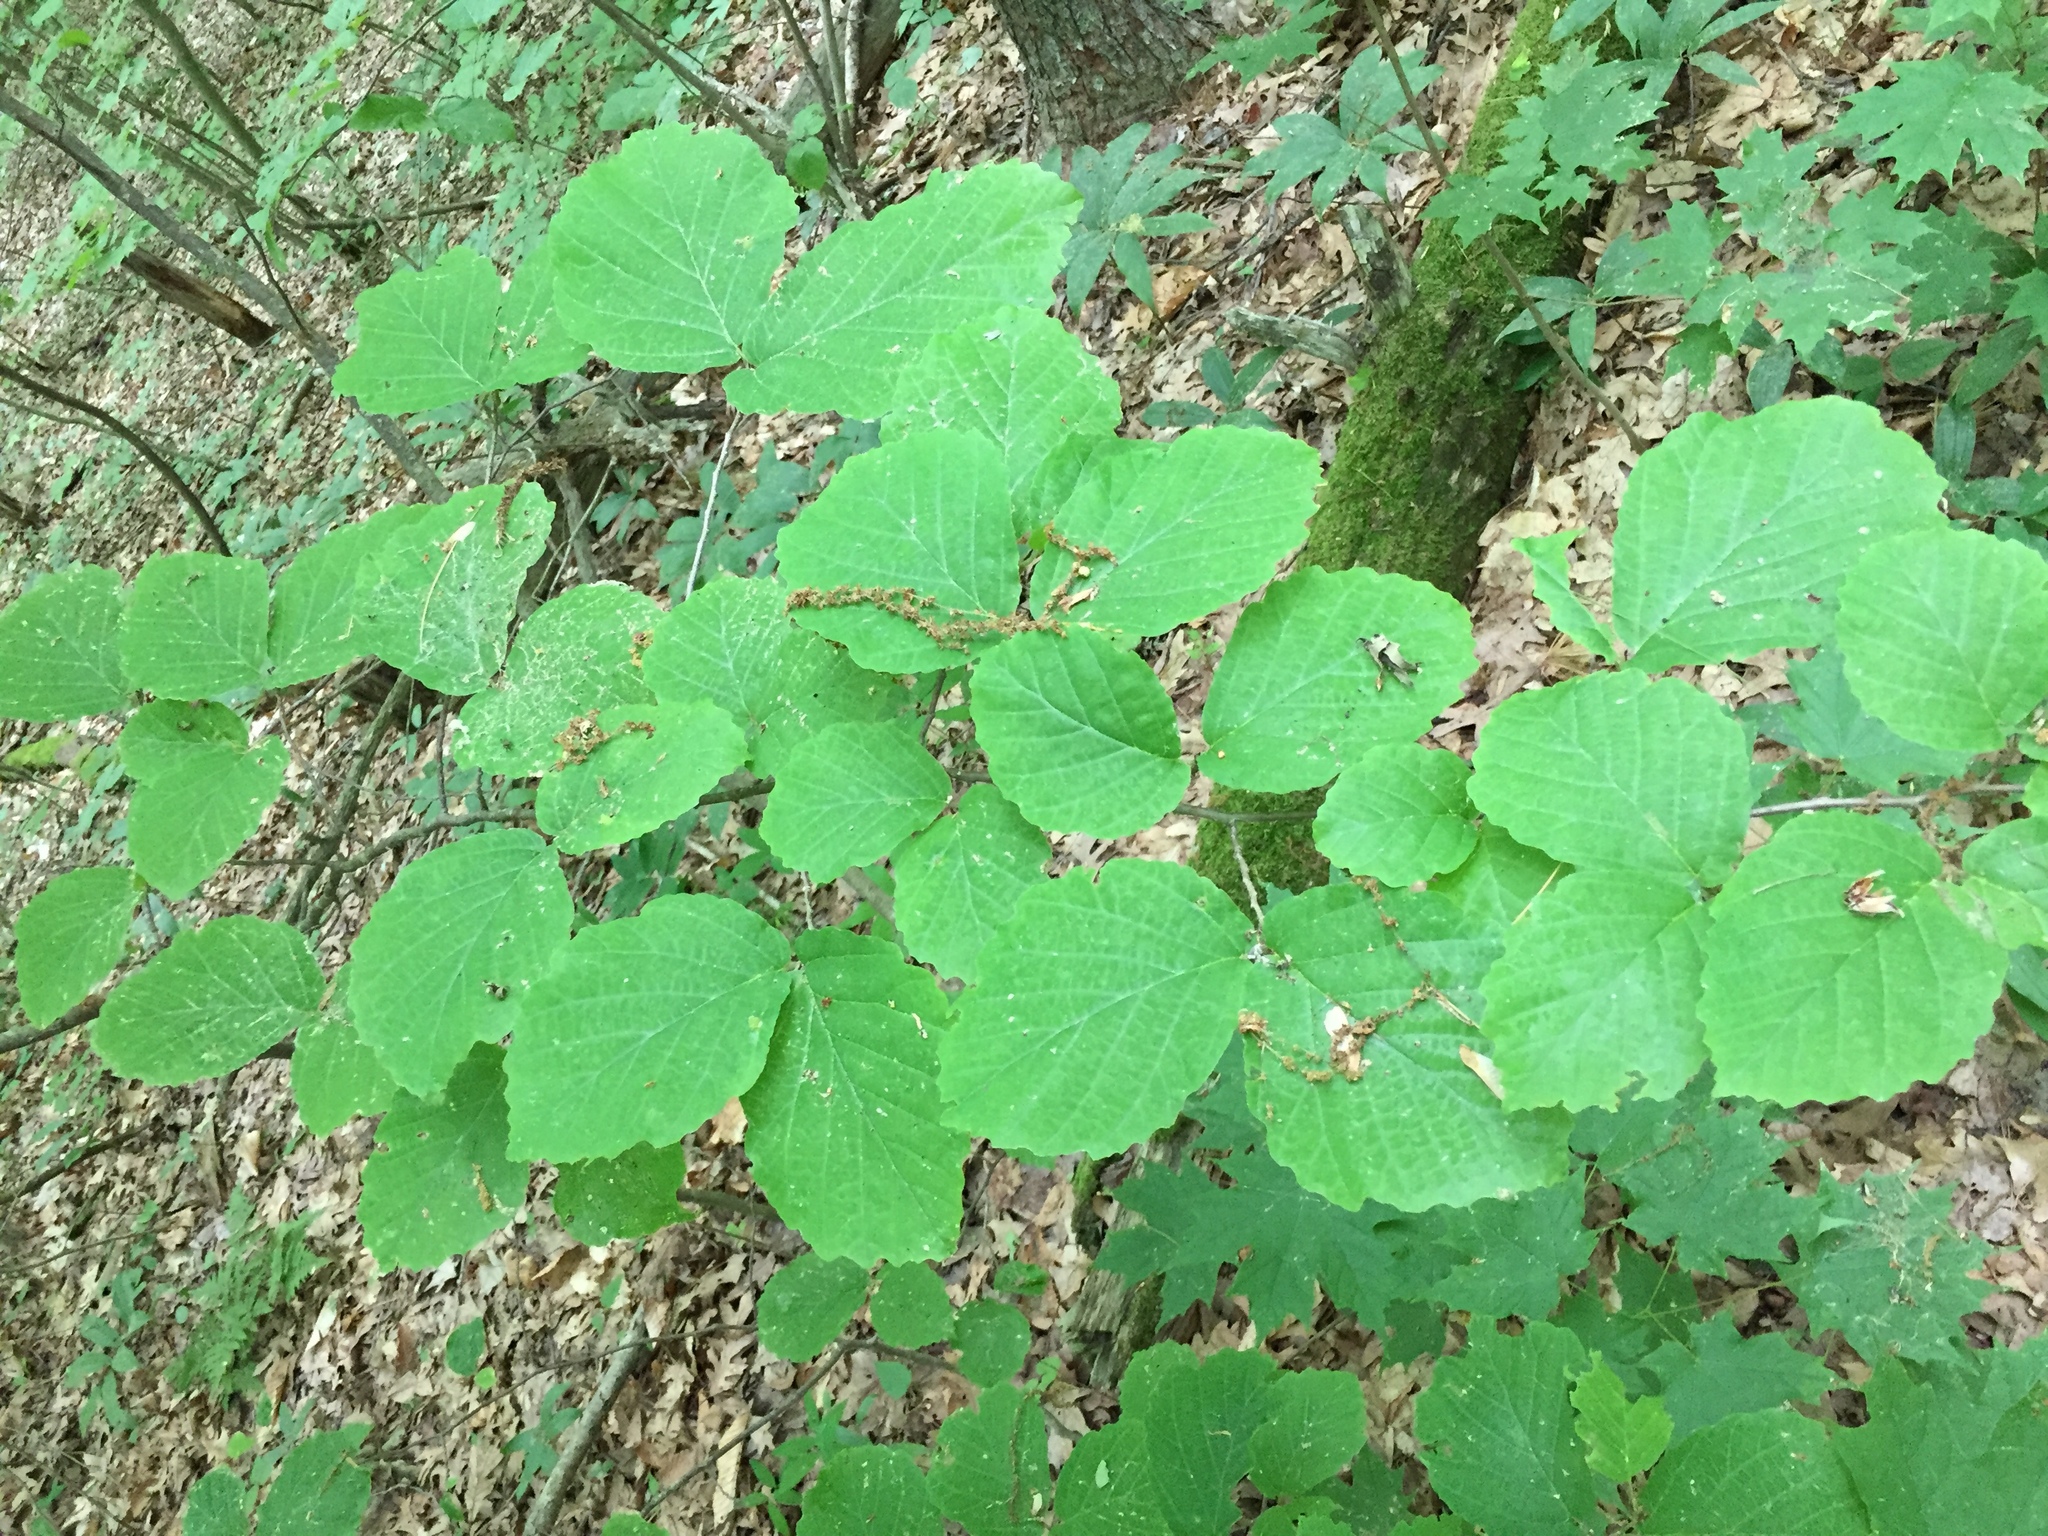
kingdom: Plantae
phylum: Tracheophyta
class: Magnoliopsida
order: Saxifragales
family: Hamamelidaceae
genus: Hamamelis
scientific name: Hamamelis virginiana
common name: Witch-hazel
